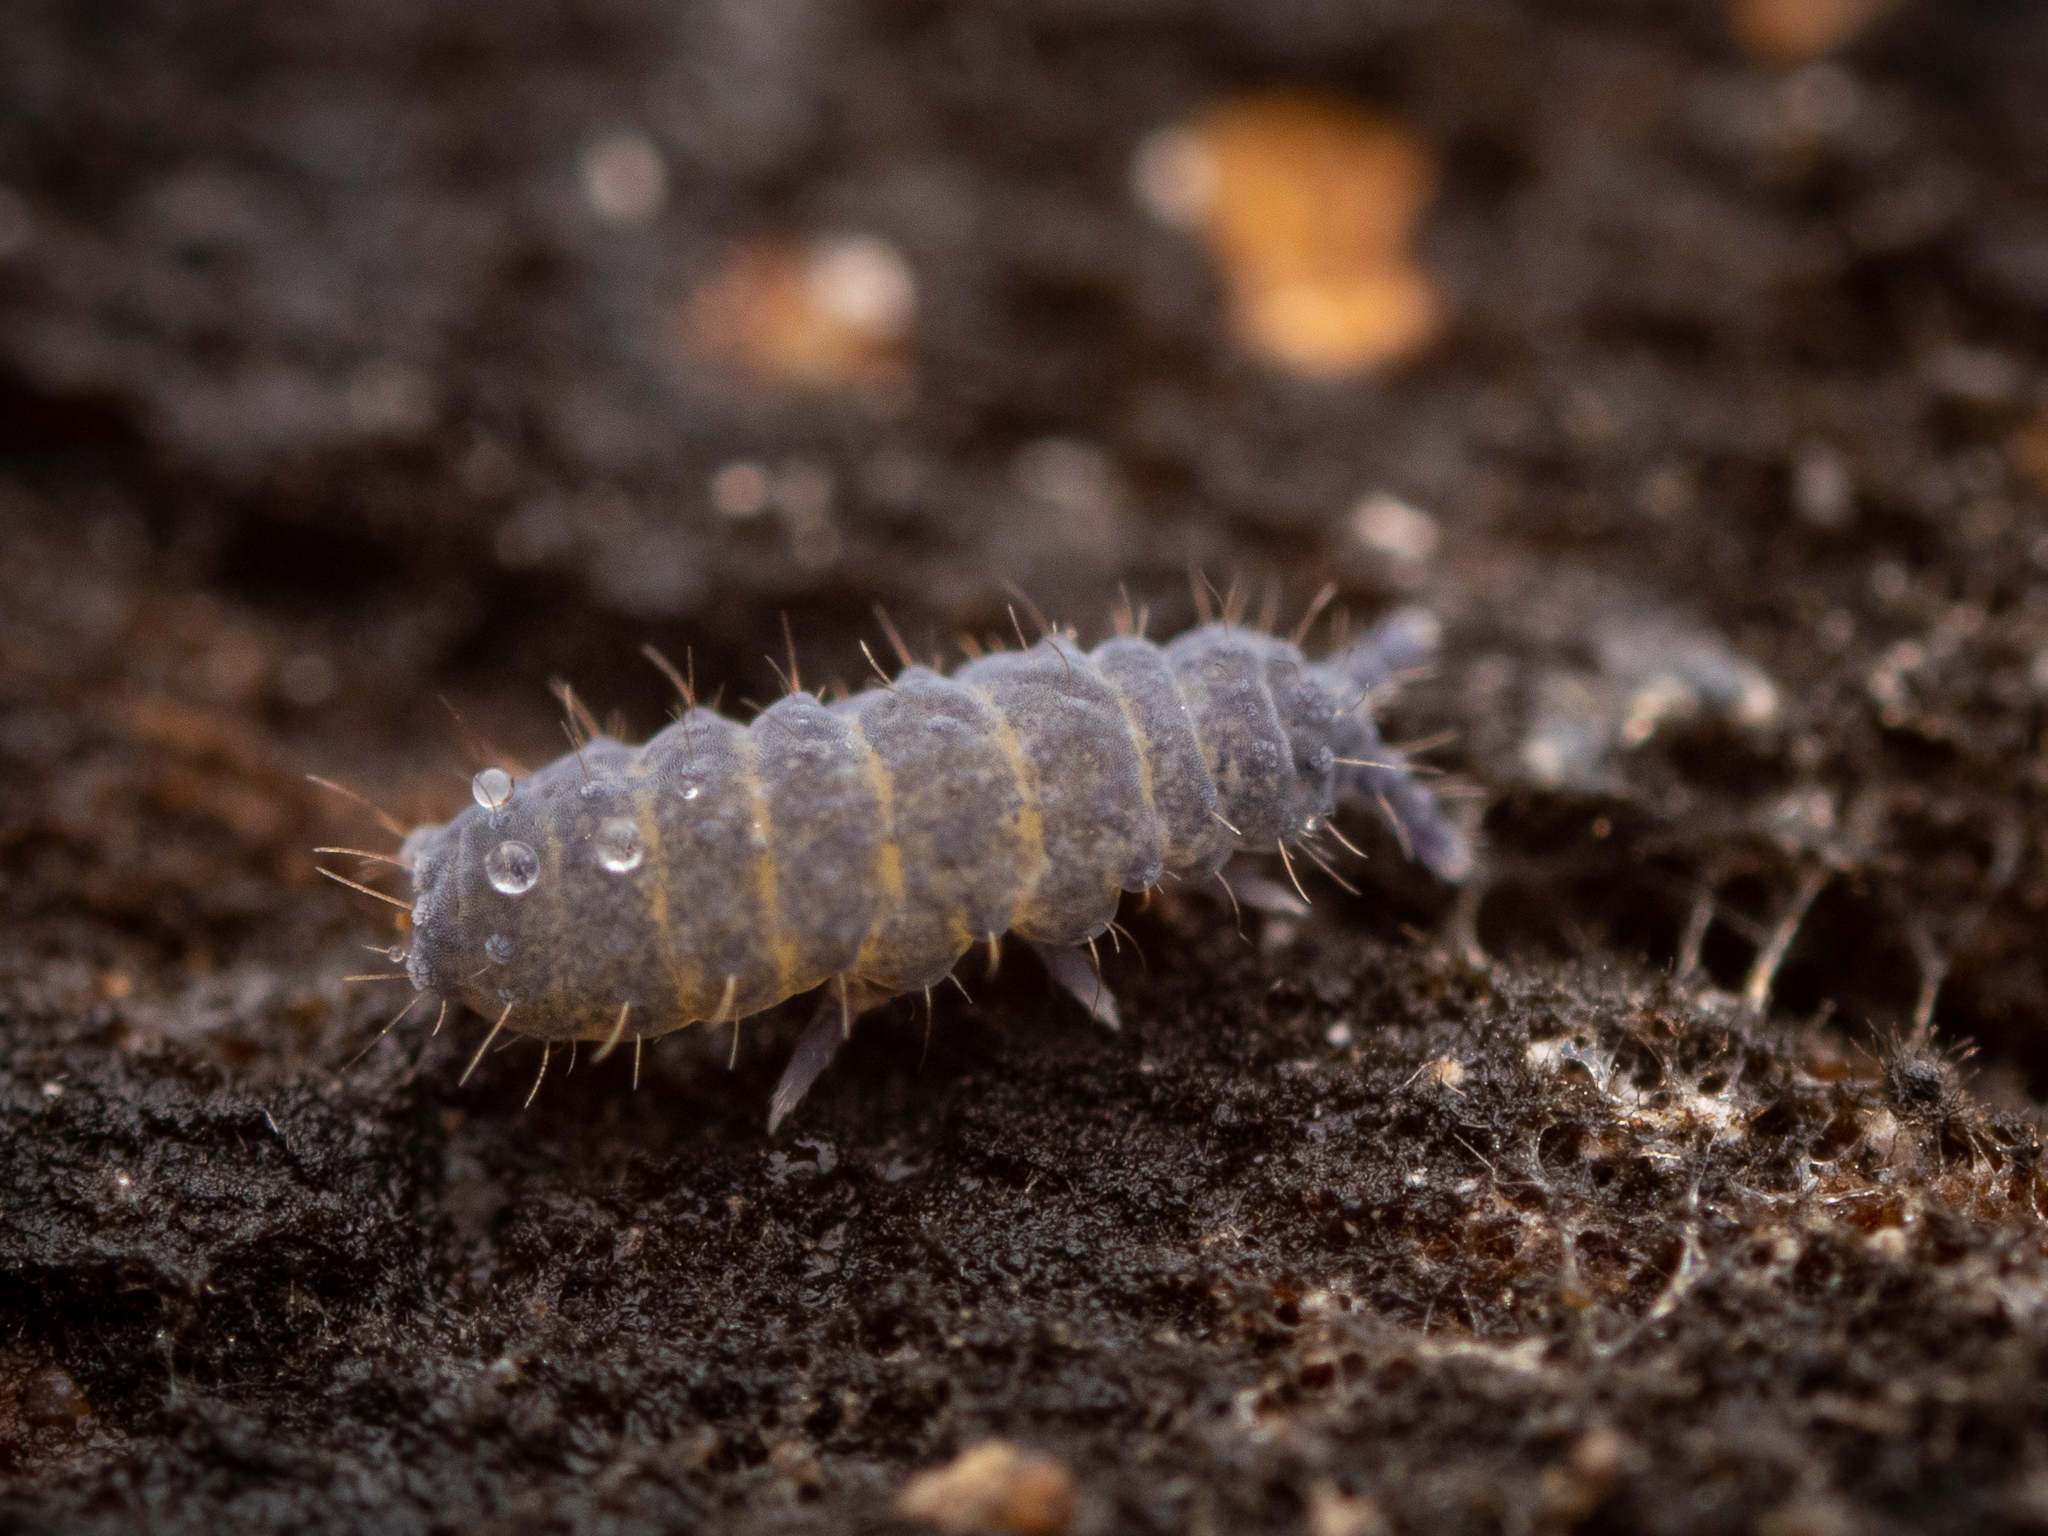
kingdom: Animalia
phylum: Arthropoda
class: Collembola
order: Poduromorpha
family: Neanuridae
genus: Neanura
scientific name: Neanura muscorum
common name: Springtail
